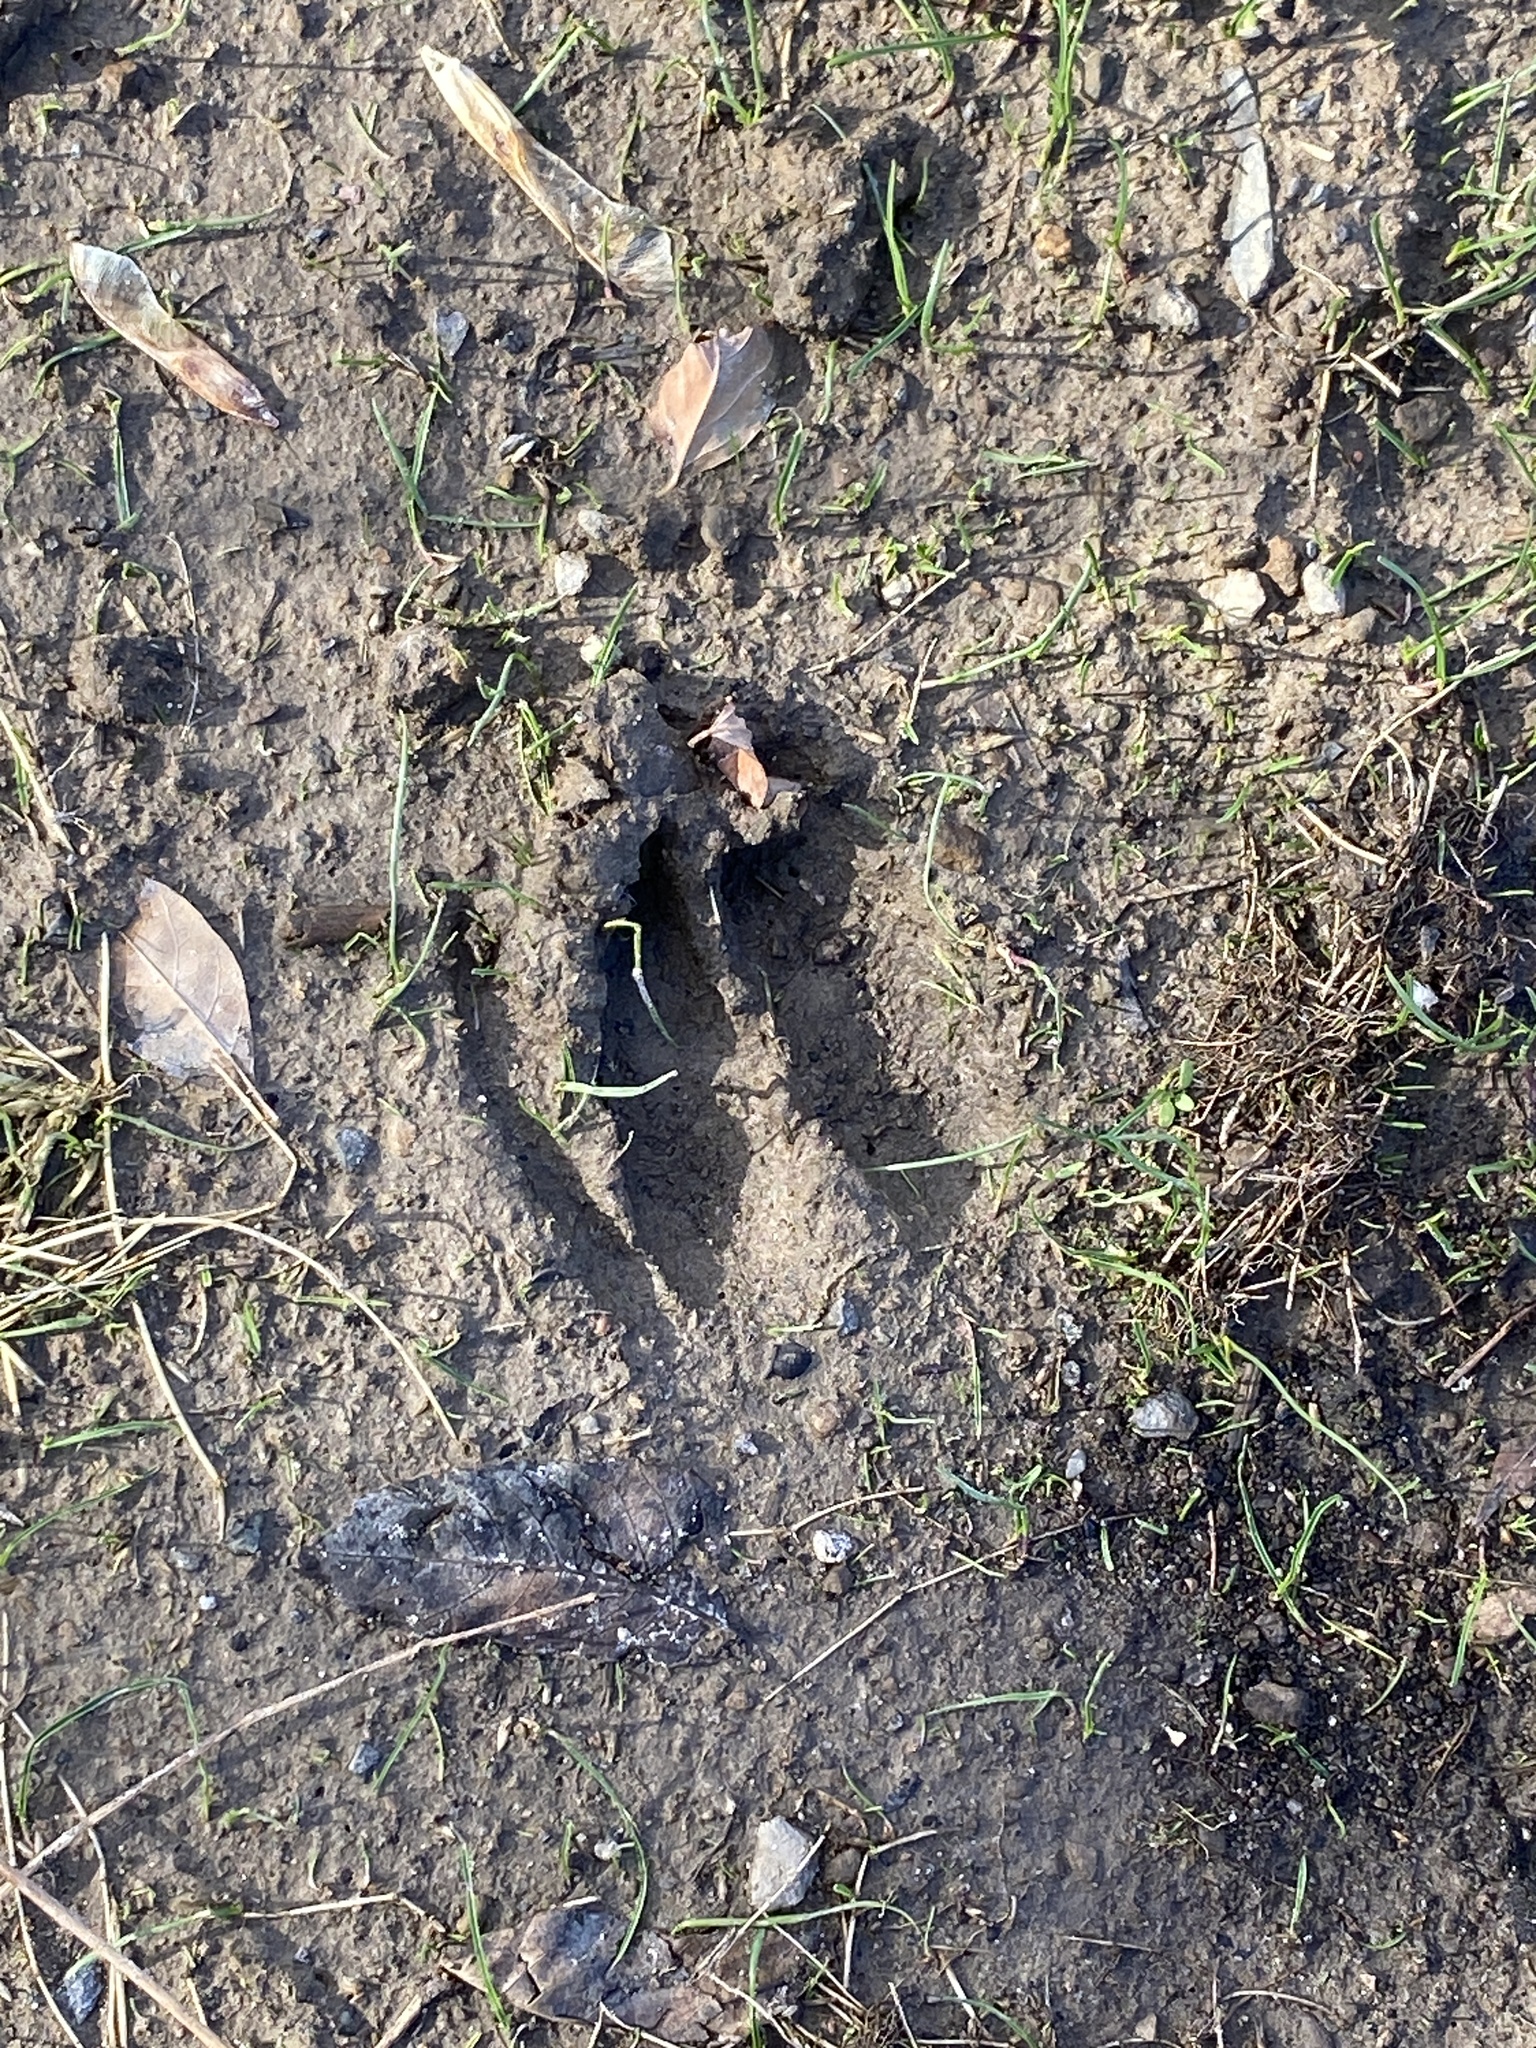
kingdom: Animalia
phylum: Chordata
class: Mammalia
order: Artiodactyla
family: Cervidae
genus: Odocoileus
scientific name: Odocoileus virginianus
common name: White-tailed deer
